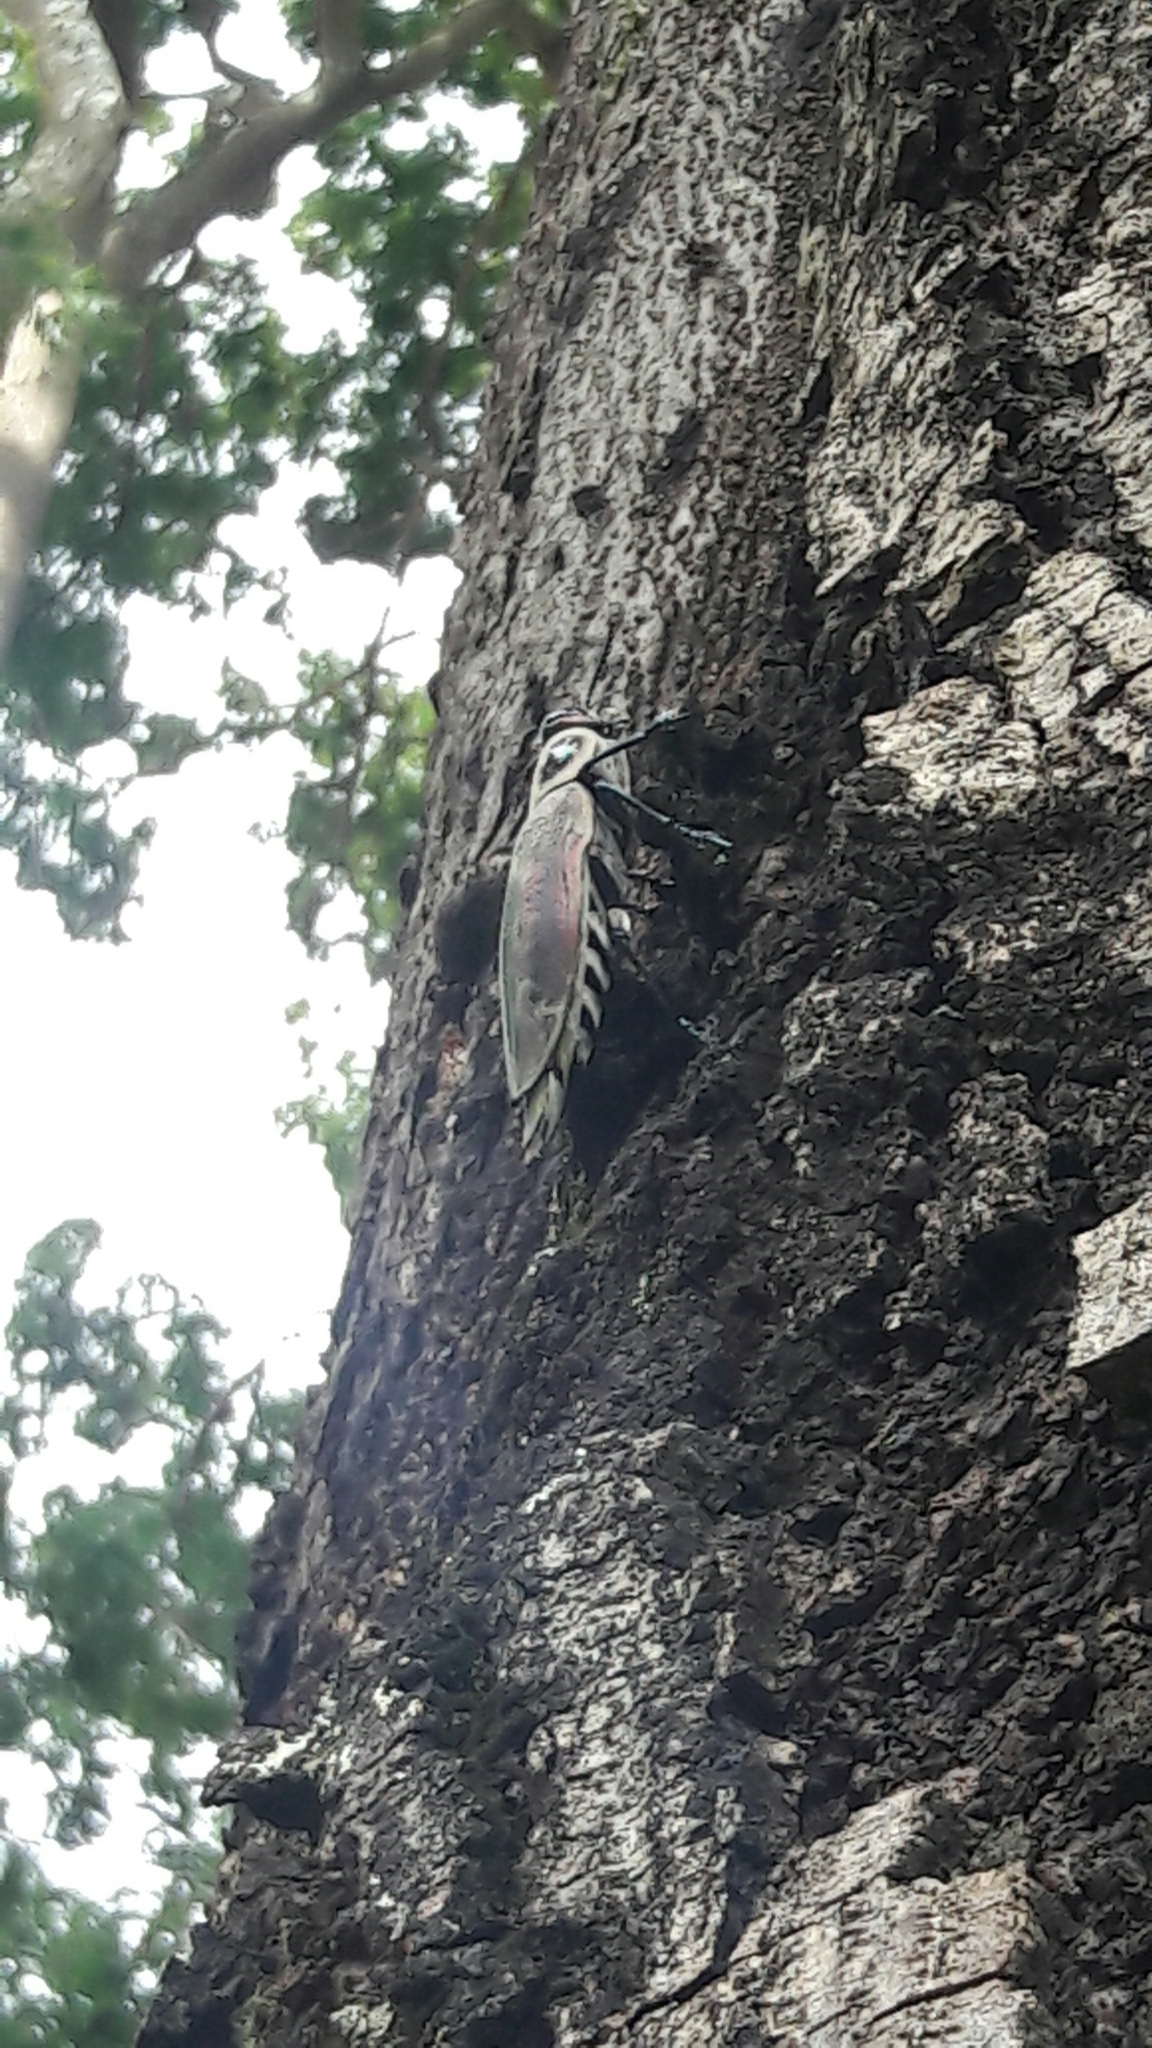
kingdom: Animalia
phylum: Arthropoda
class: Insecta
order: Coleoptera
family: Buprestidae
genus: Euchroma
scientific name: Euchroma giganteum
